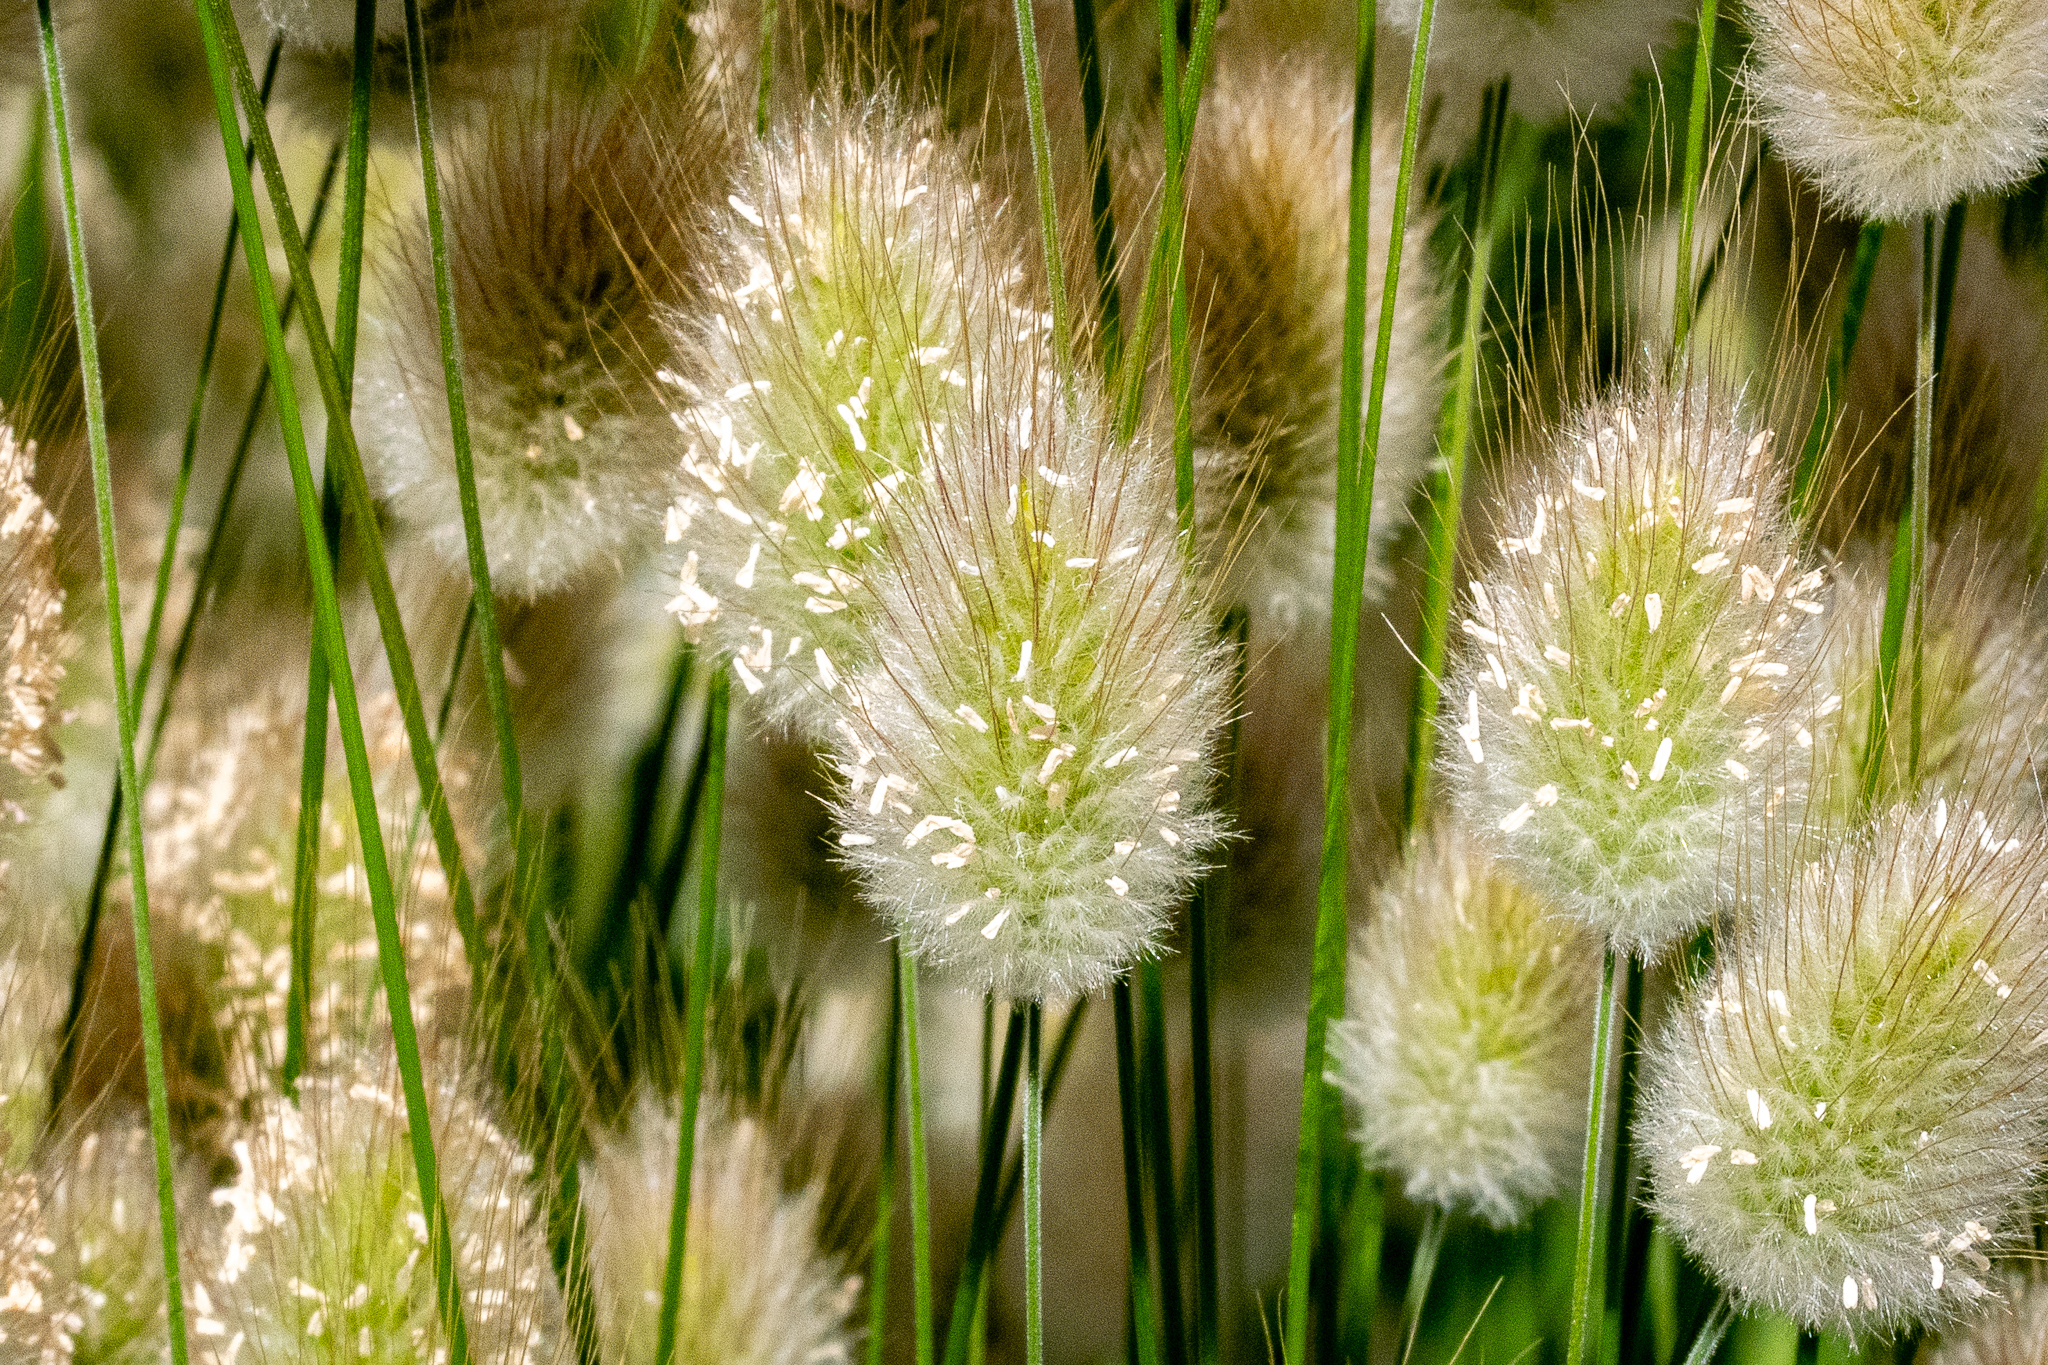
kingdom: Plantae
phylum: Tracheophyta
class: Liliopsida
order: Poales
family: Poaceae
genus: Lagurus
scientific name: Lagurus ovatus
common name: Hare's-tail
